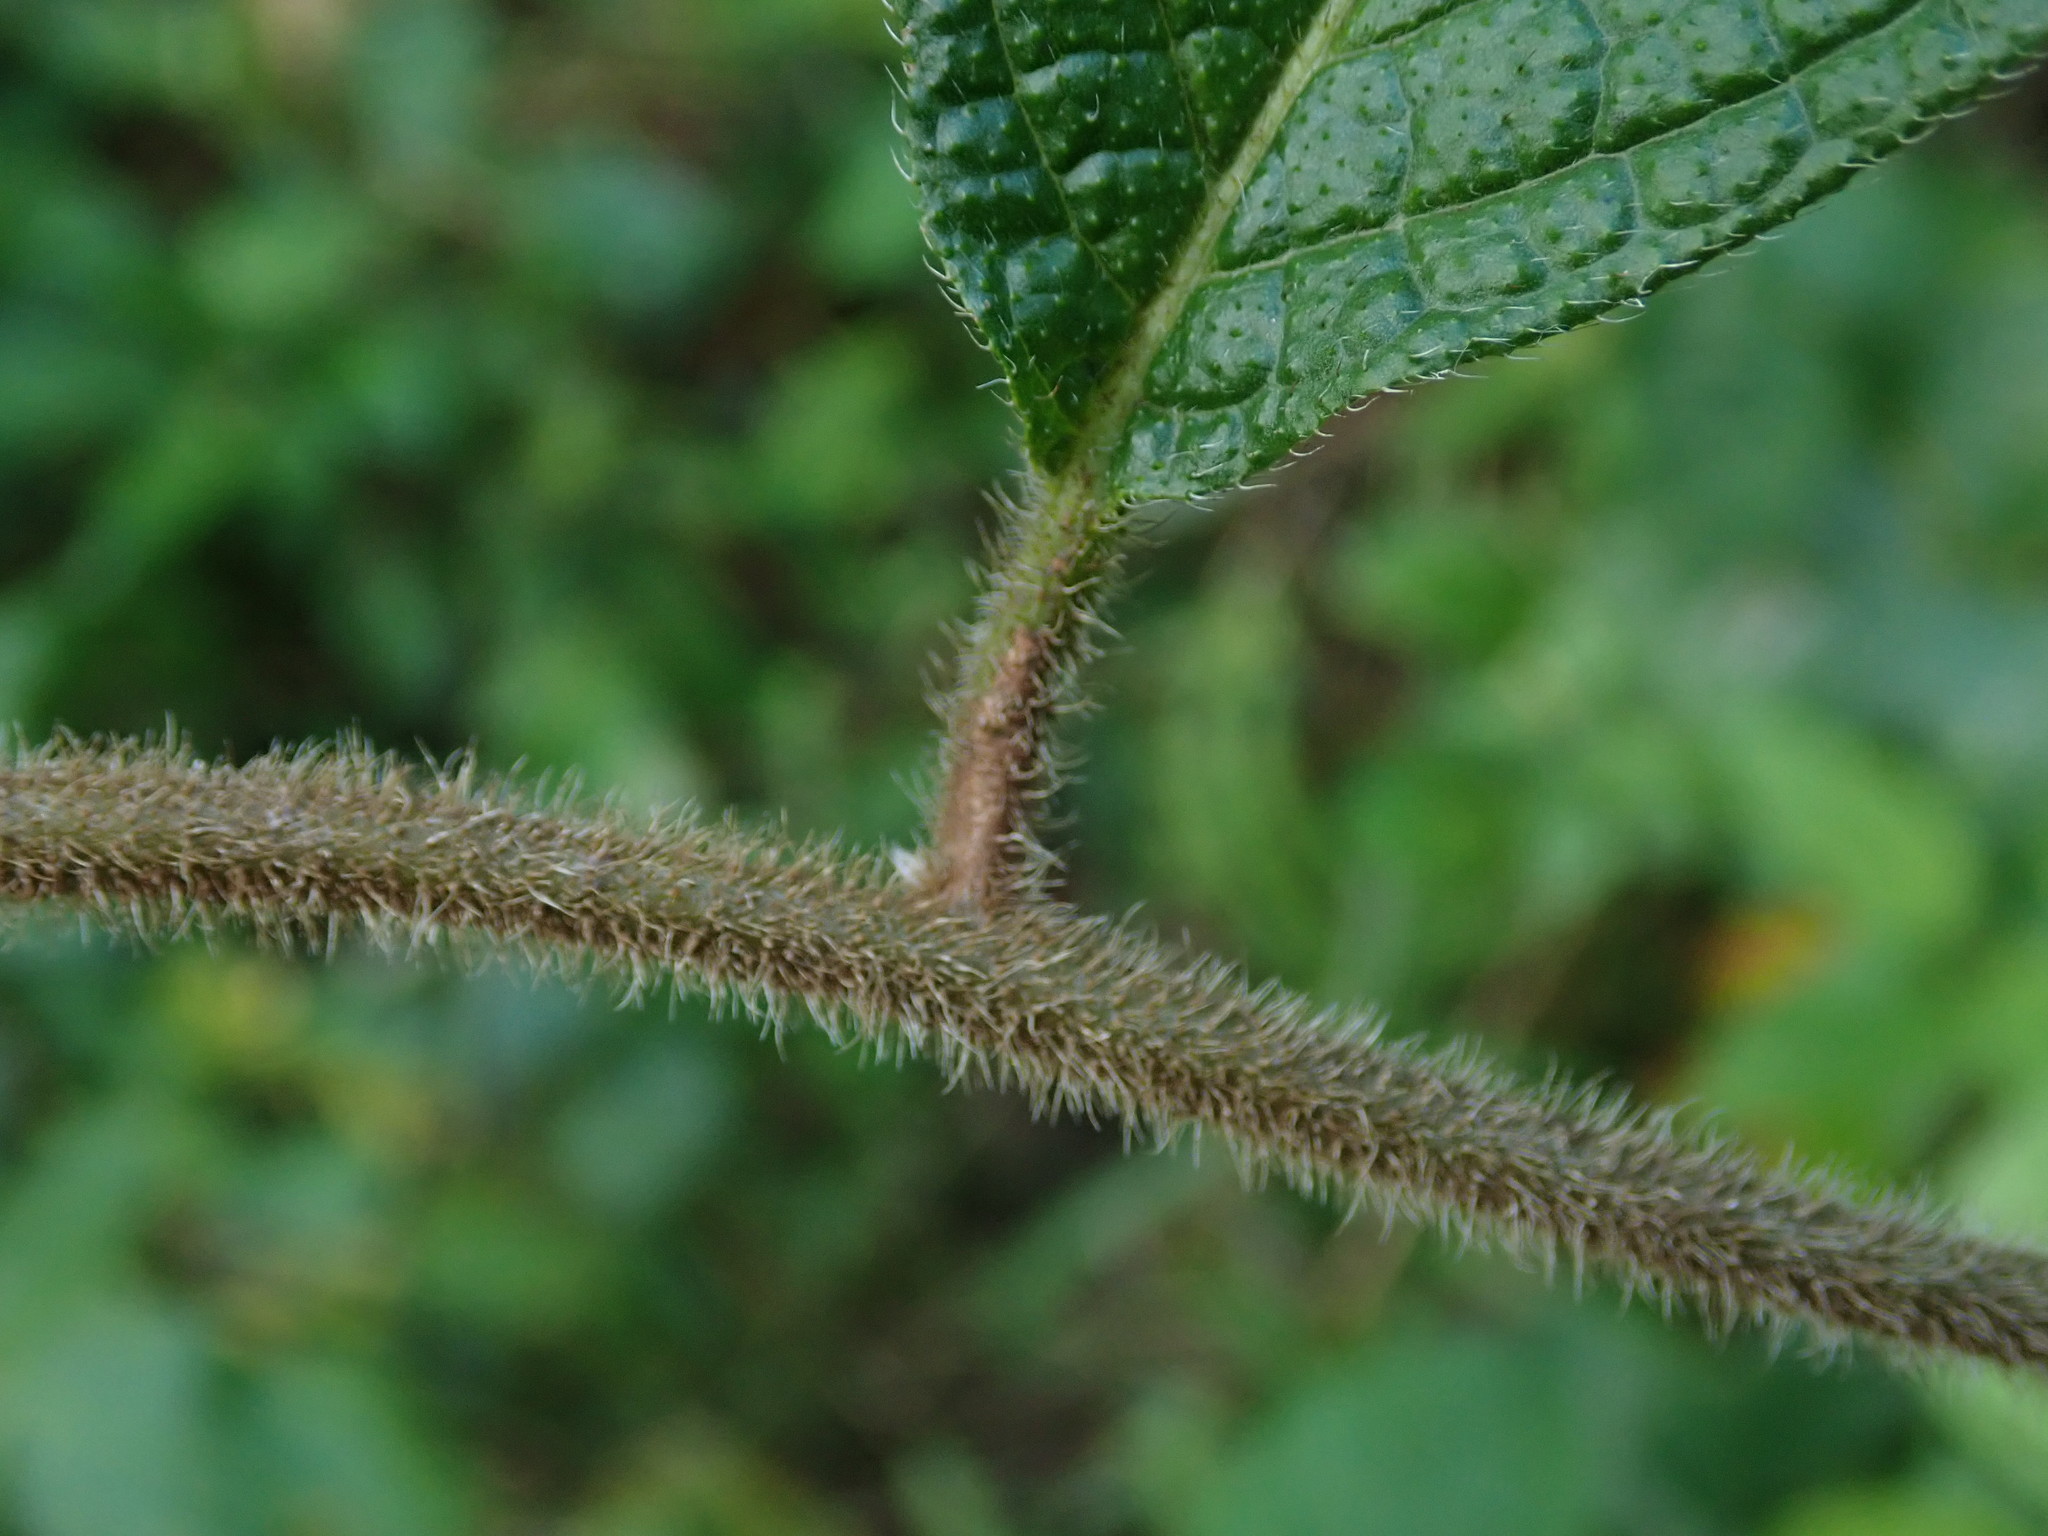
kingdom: Plantae
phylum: Tracheophyta
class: Magnoliopsida
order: Boraginales
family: Heliotropiaceae
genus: Heliotropium
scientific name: Heliotropium verdcourtii
